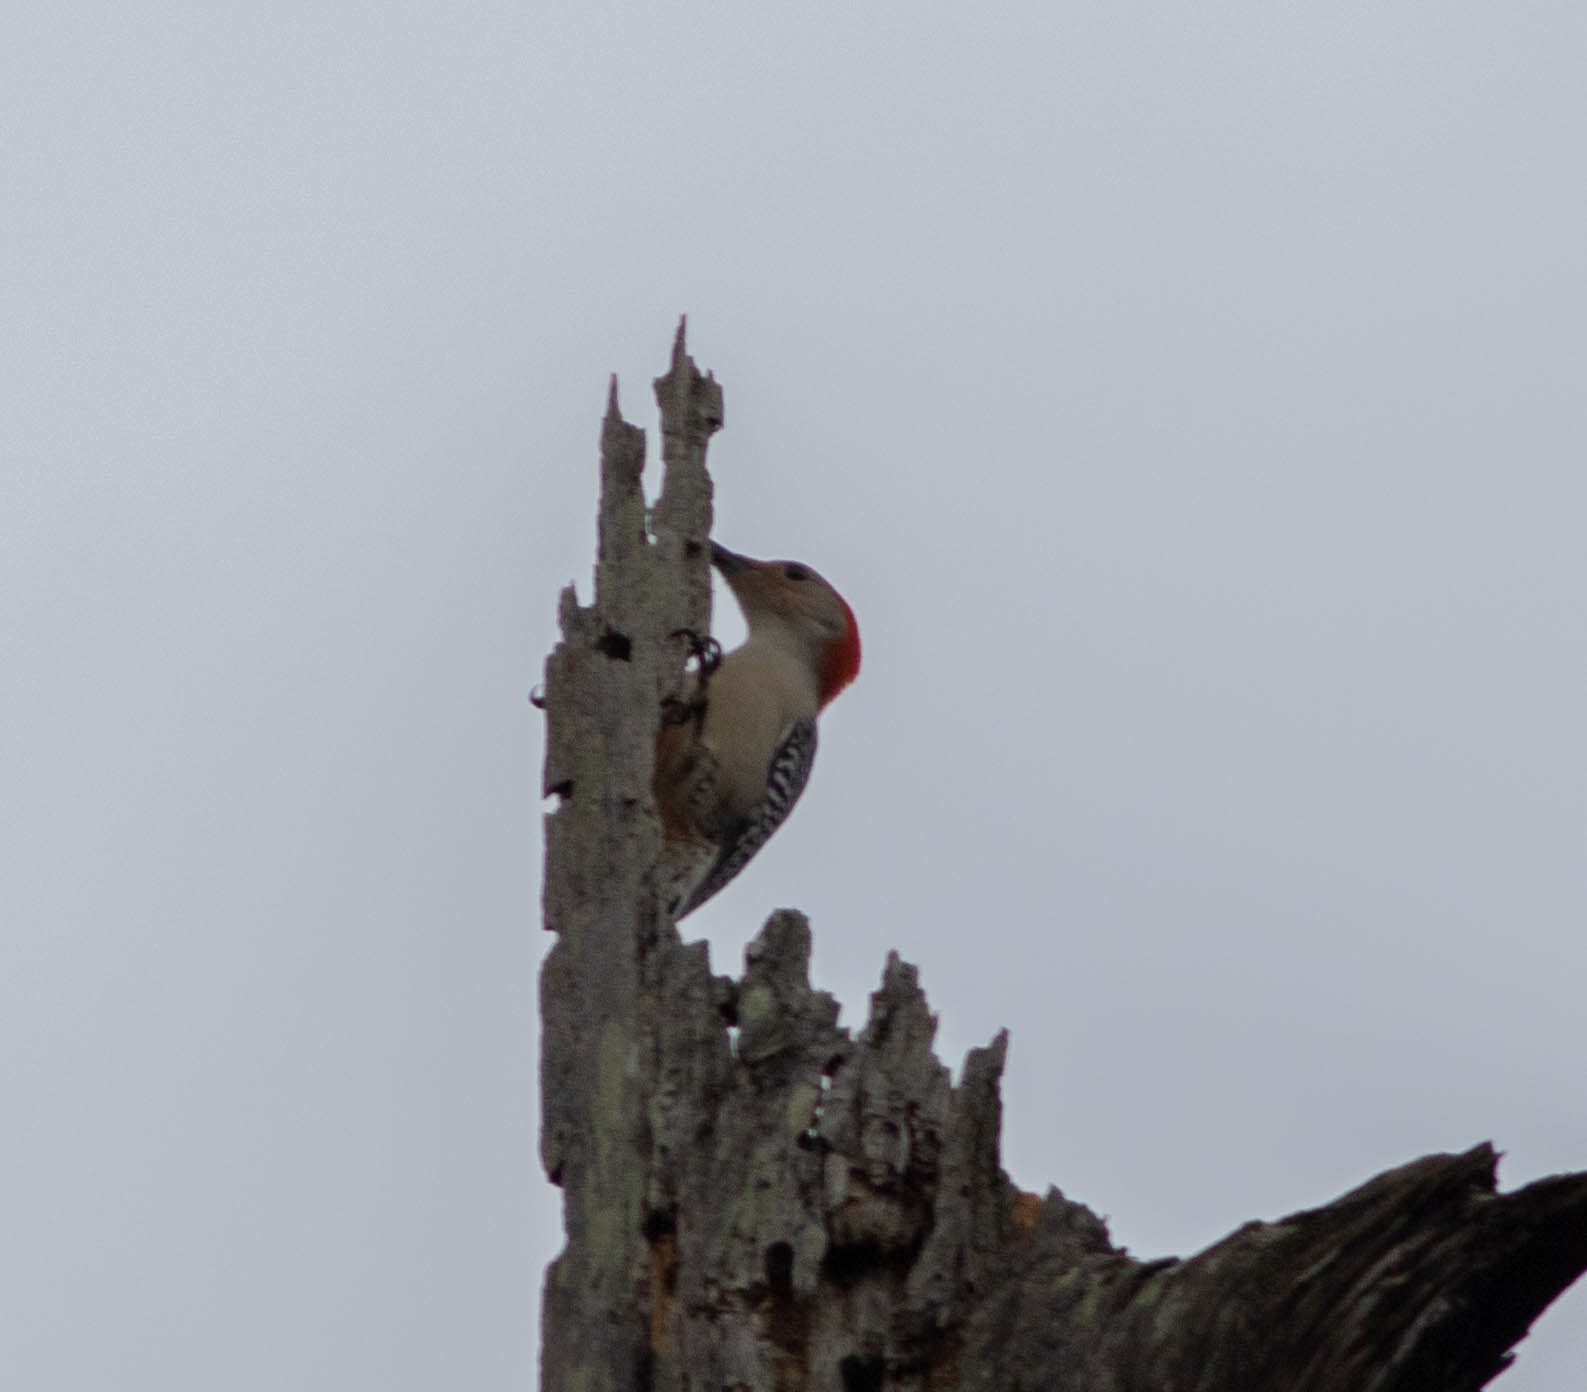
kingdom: Animalia
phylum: Chordata
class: Aves
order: Piciformes
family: Picidae
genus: Melanerpes
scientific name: Melanerpes carolinus
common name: Red-bellied woodpecker
